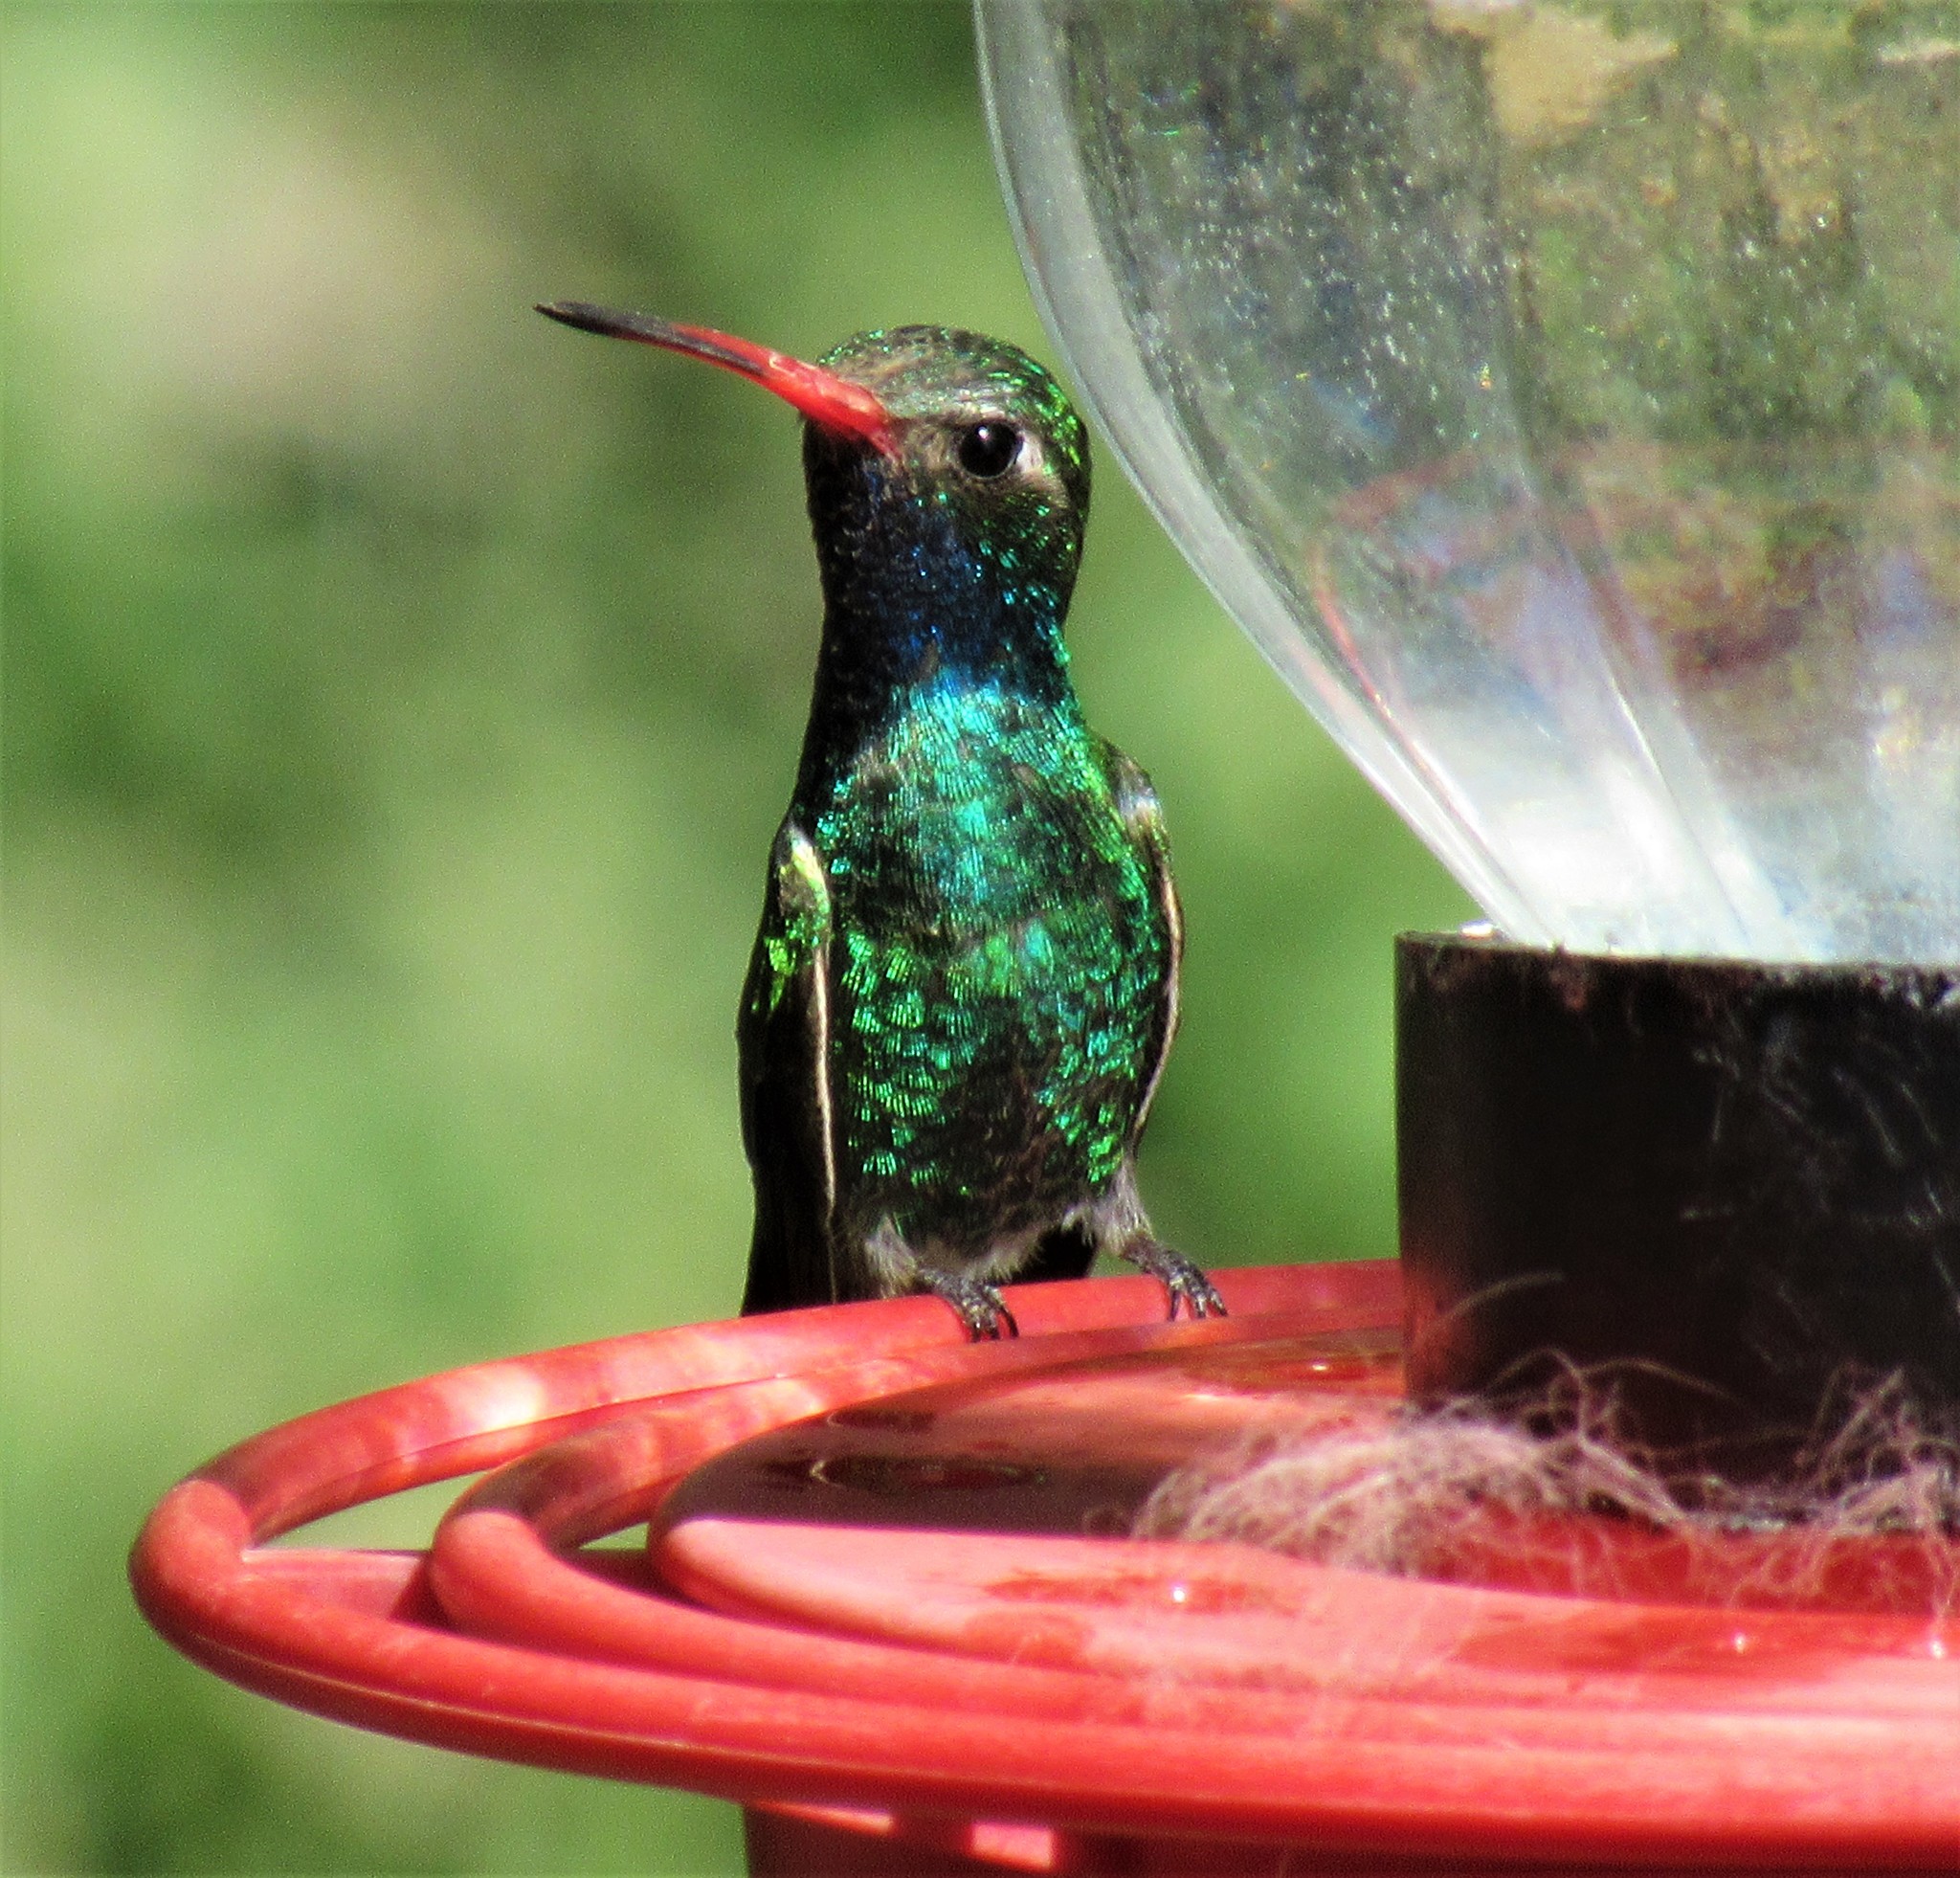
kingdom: Animalia
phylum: Chordata
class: Aves
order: Apodiformes
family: Trochilidae
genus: Cynanthus
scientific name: Cynanthus latirostris
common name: Broad-billed hummingbird
